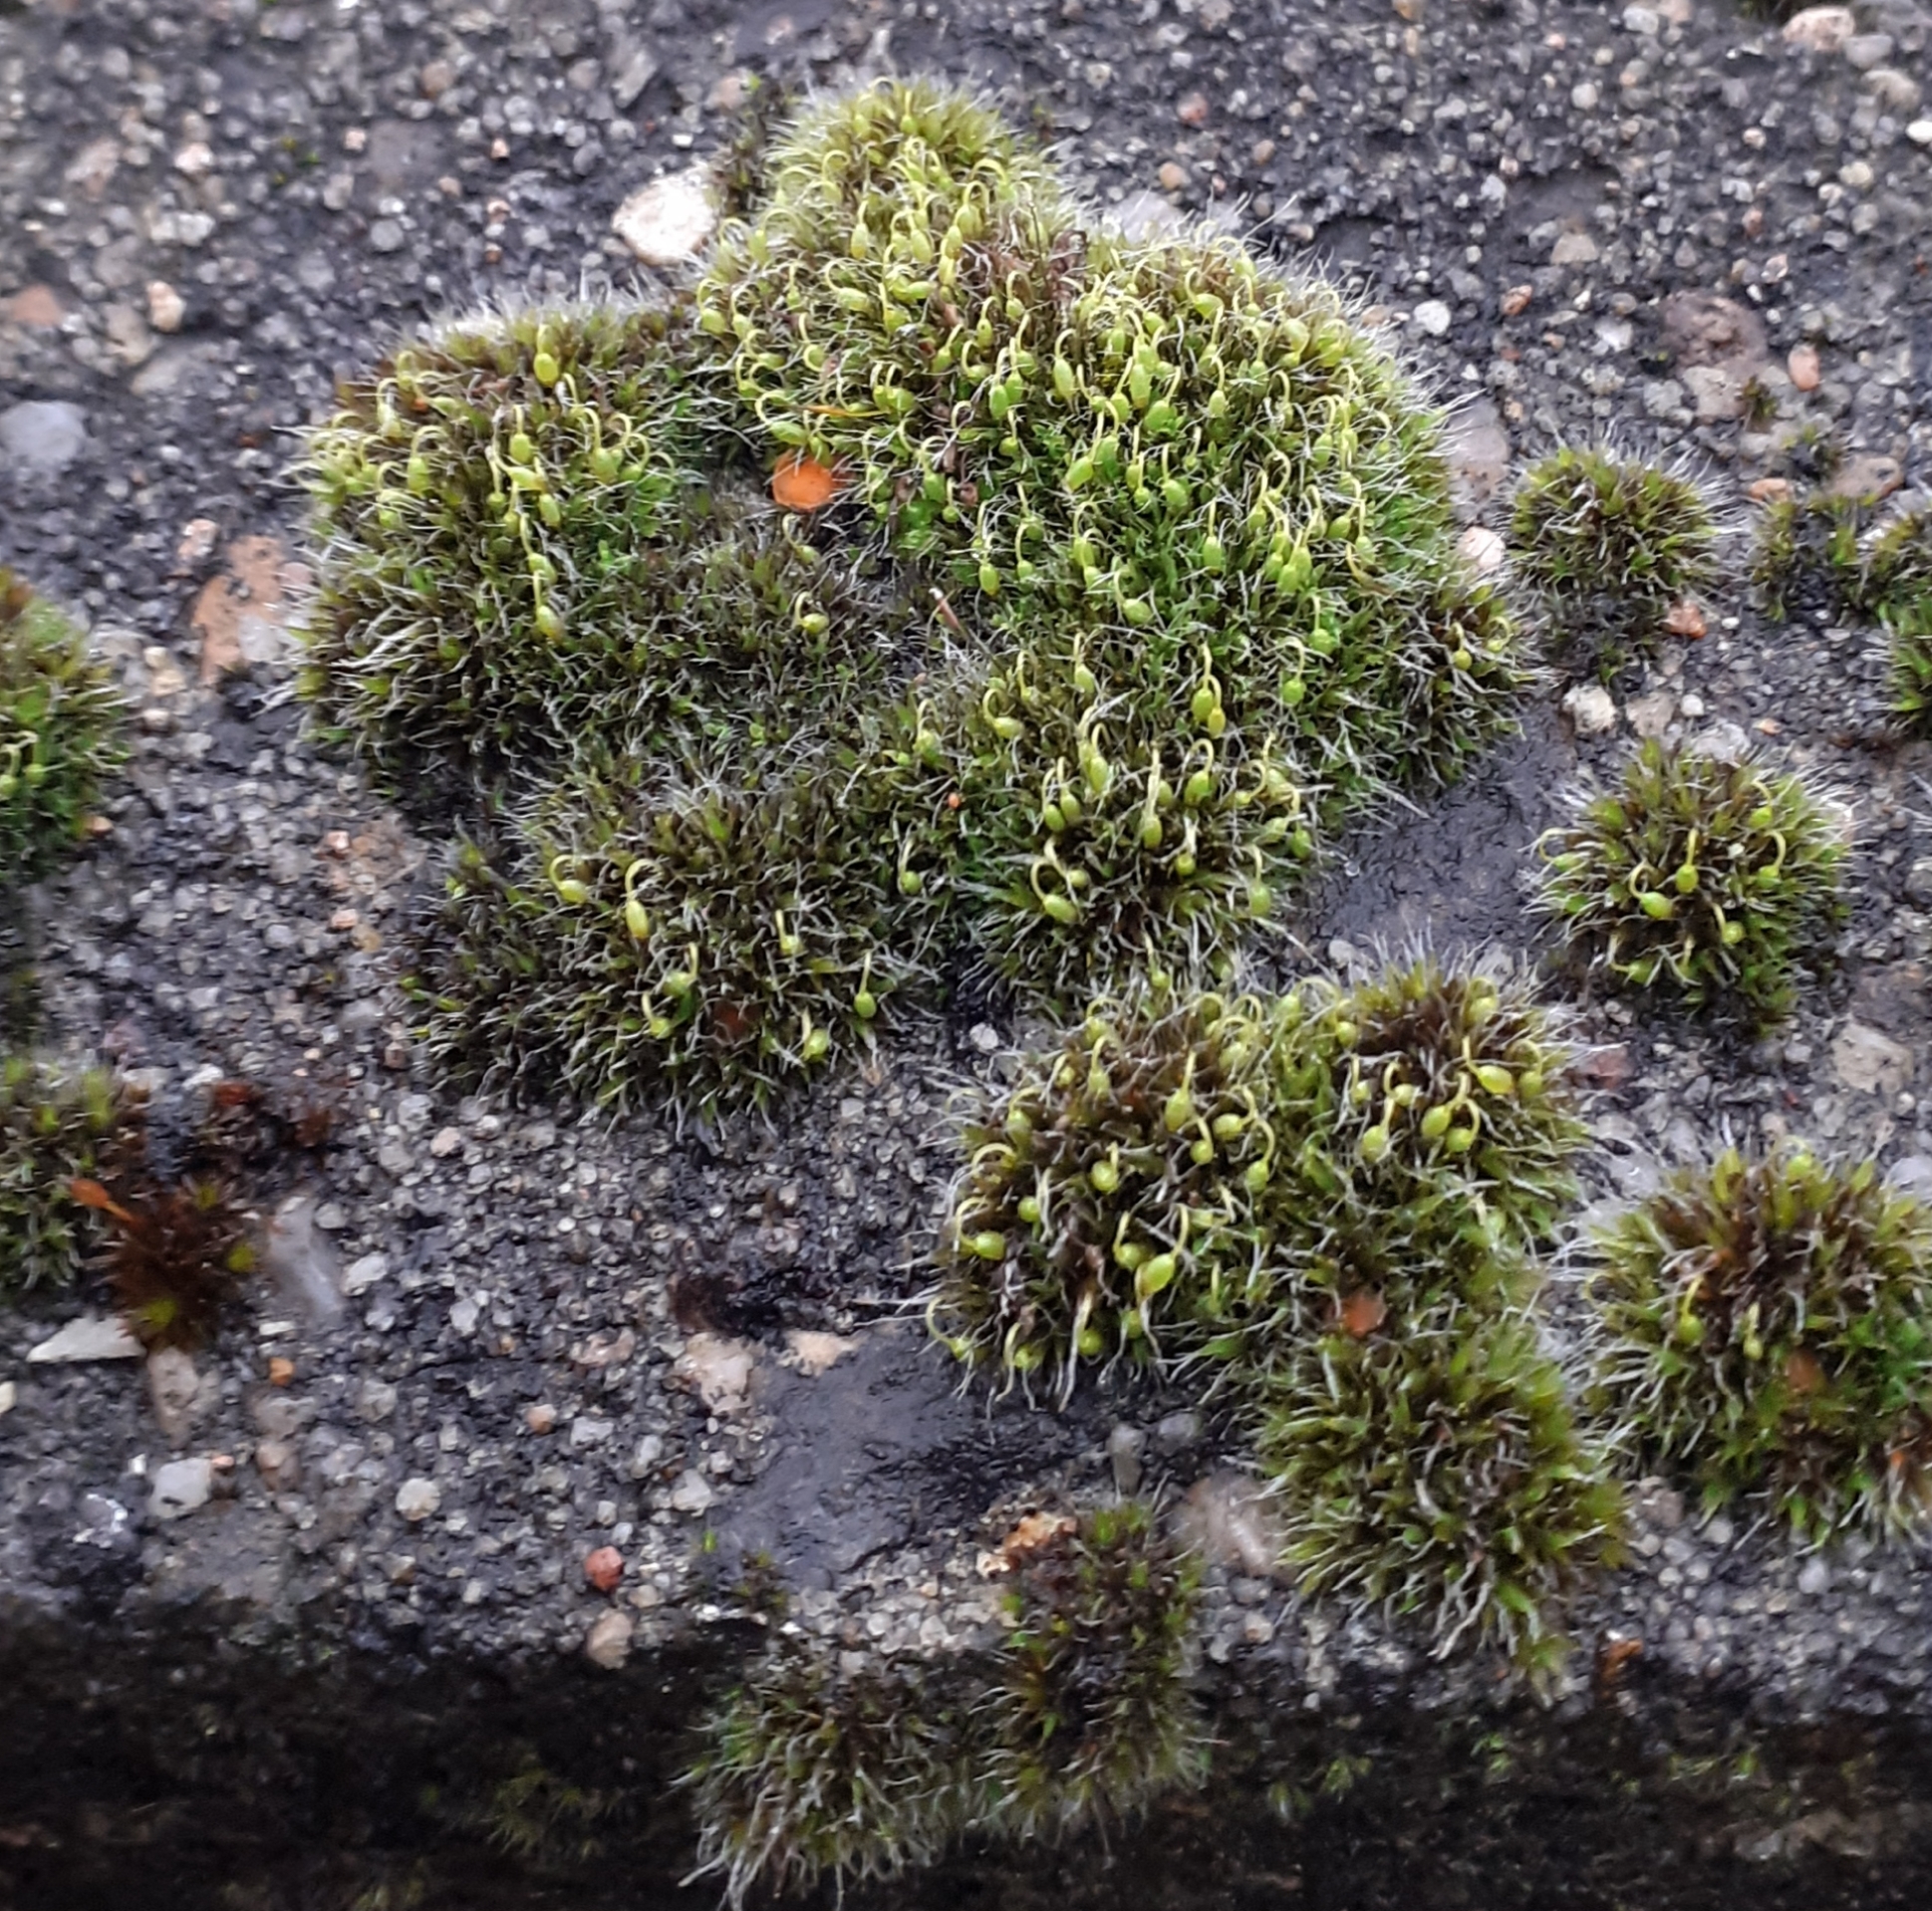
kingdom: Plantae
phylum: Bryophyta
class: Bryopsida
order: Grimmiales
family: Grimmiaceae
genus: Grimmia
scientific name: Grimmia pulvinata
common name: Grey-cushioned grimmia
